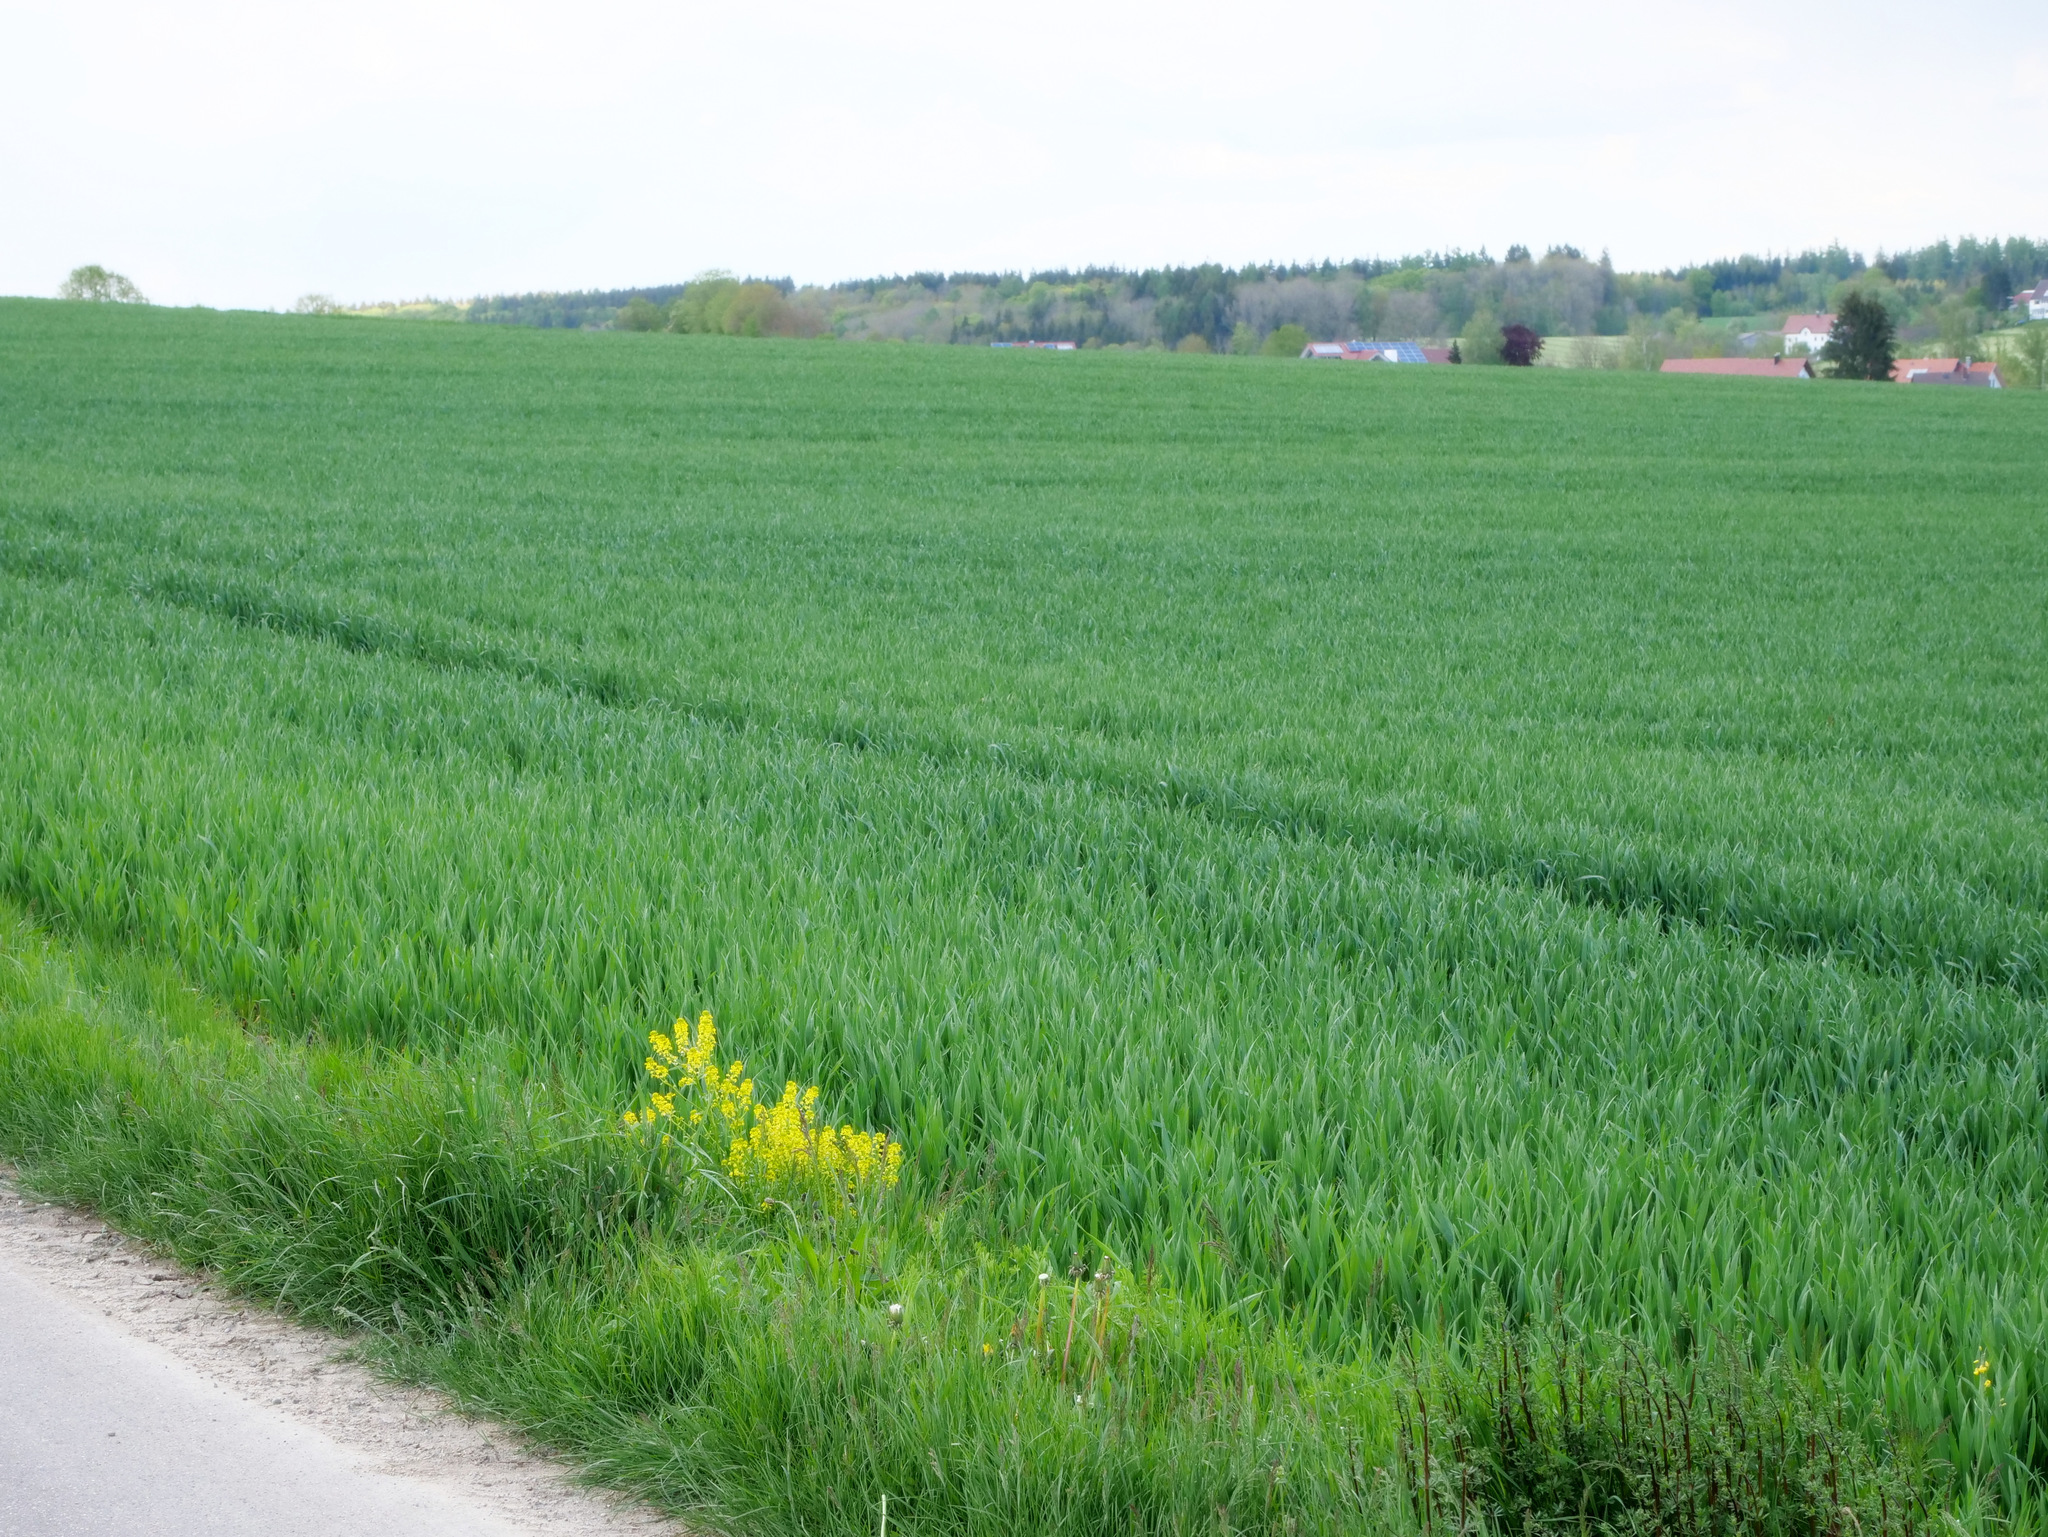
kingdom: Plantae
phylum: Tracheophyta
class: Magnoliopsida
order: Brassicales
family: Brassicaceae
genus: Barbarea
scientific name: Barbarea vulgaris
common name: Cressy-greens
